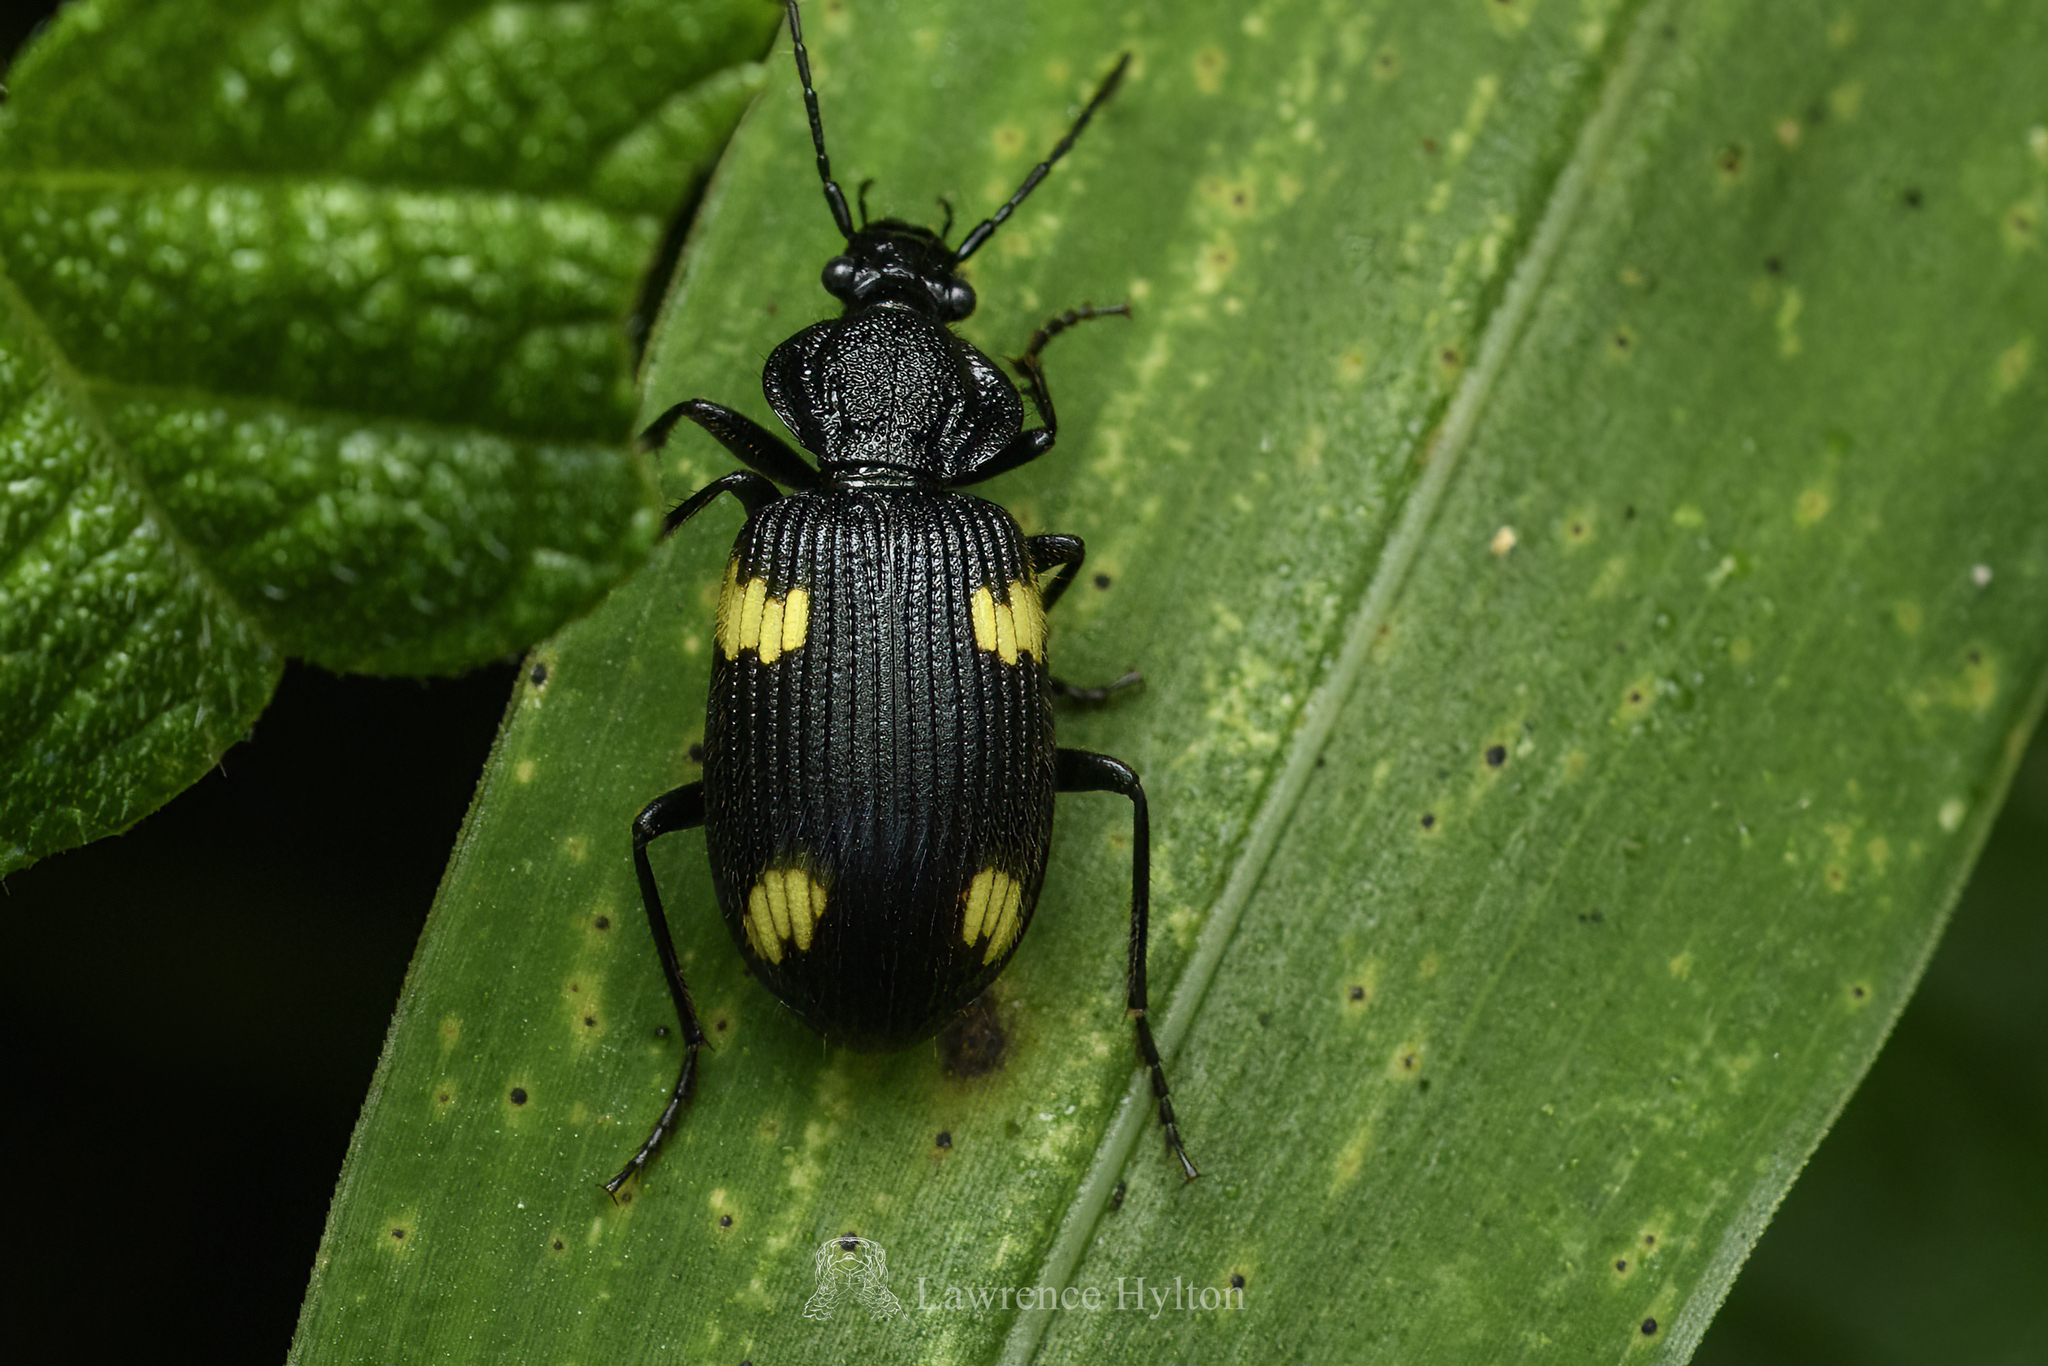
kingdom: Animalia
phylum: Arthropoda
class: Insecta
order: Coleoptera
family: Carabidae
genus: Craspedophorus
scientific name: Craspedophorus bisemilunatus
